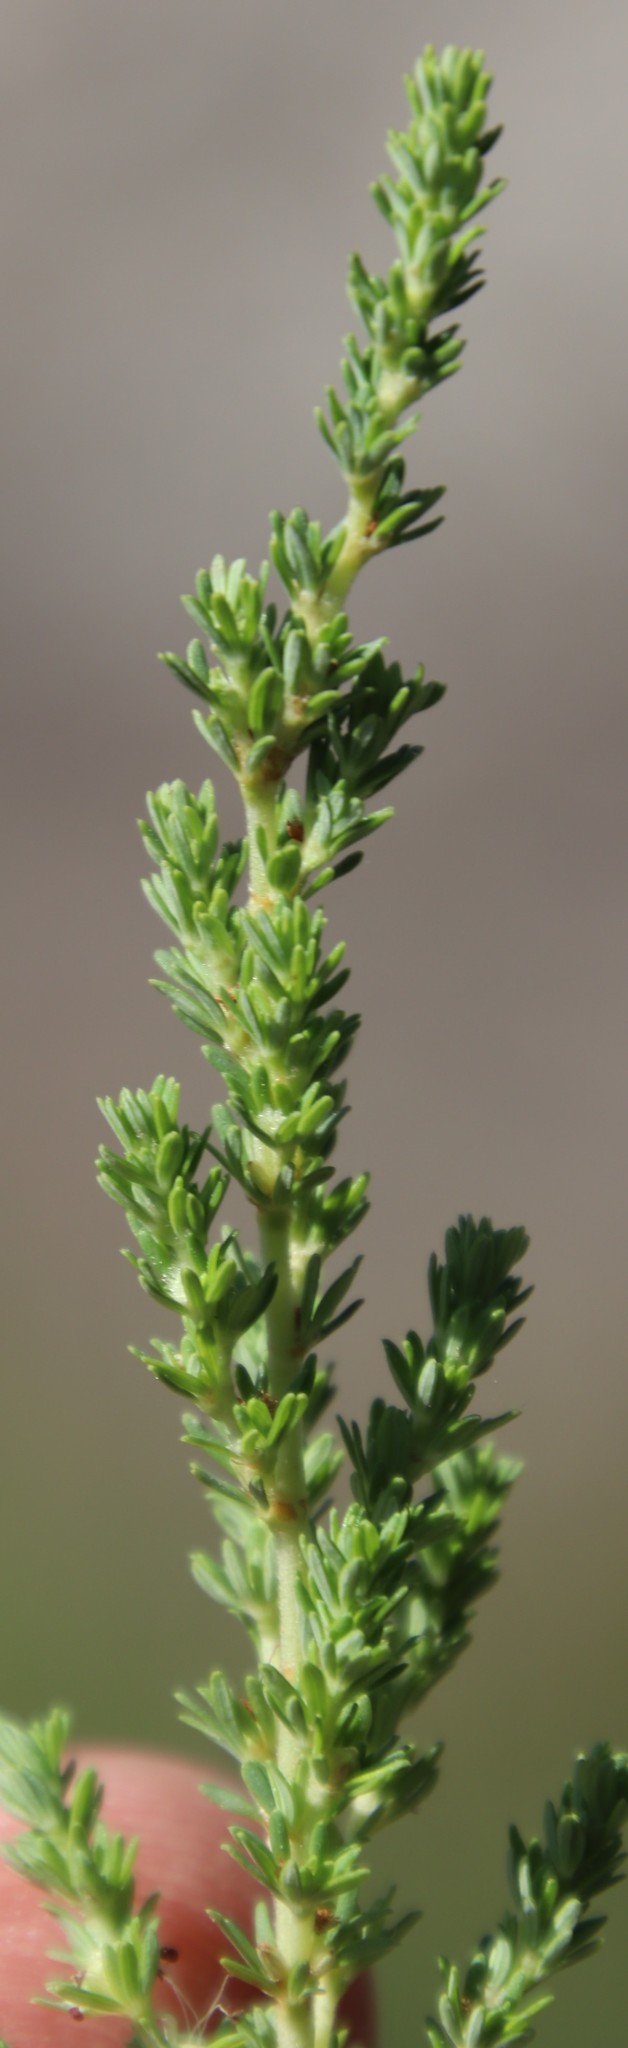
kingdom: Plantae
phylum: Tracheophyta
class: Magnoliopsida
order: Rosales
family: Rosaceae
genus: Cliffortia
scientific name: Cliffortia serpyllifolia
